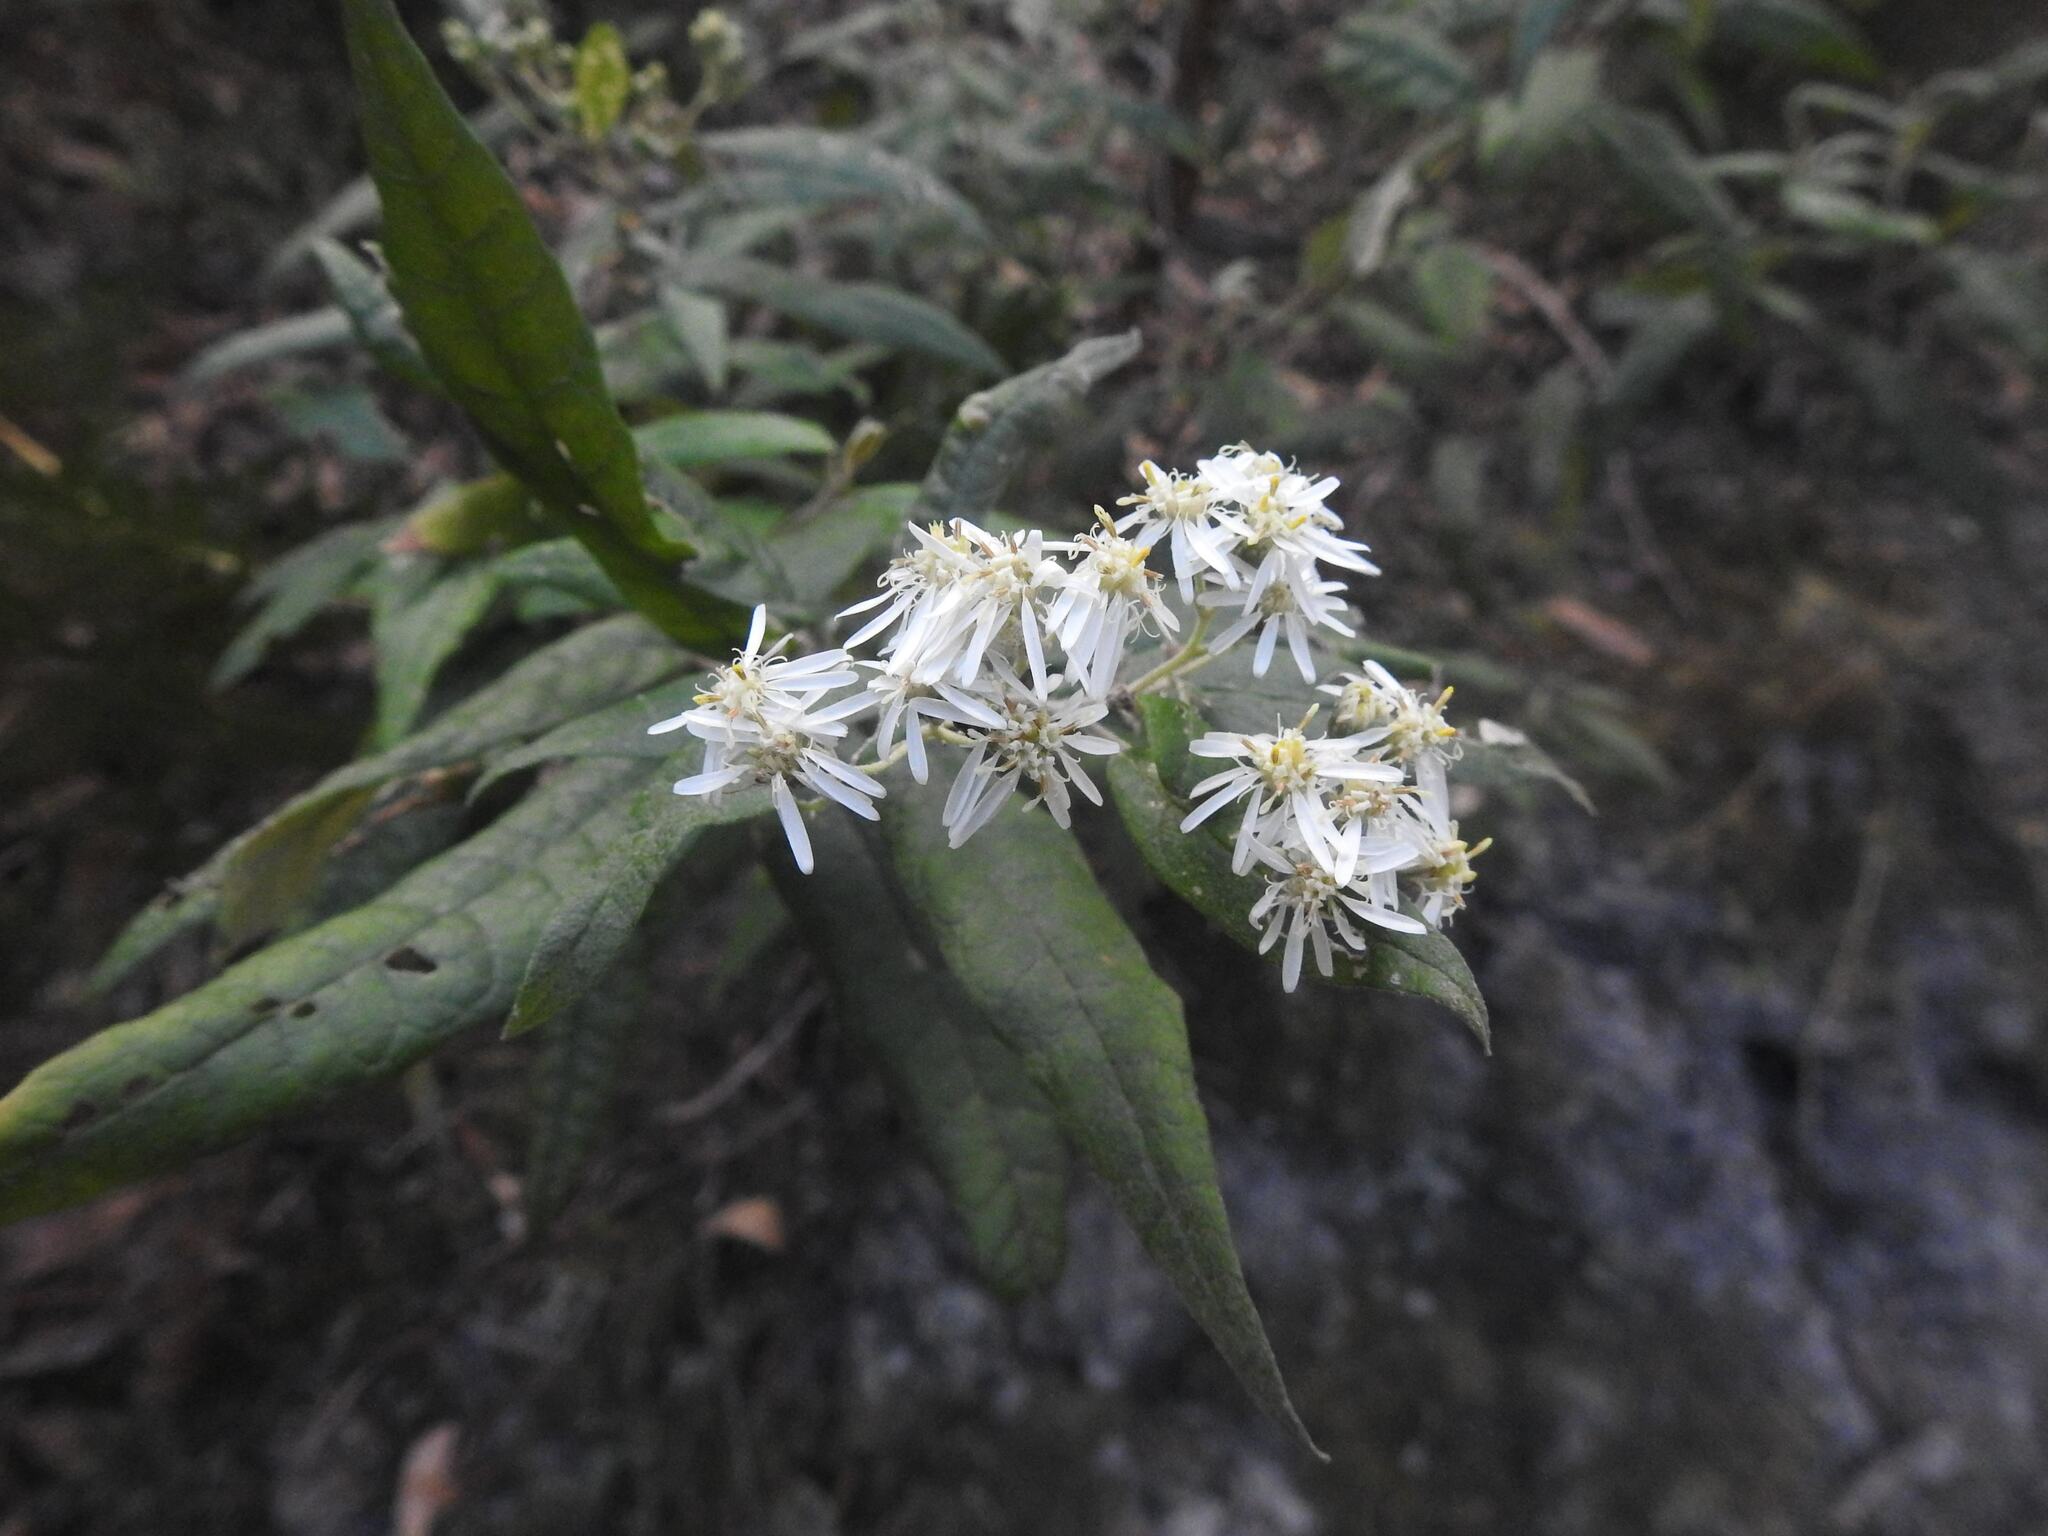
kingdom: Plantae
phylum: Tracheophyta
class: Magnoliopsida
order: Asterales
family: Asteraceae
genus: Olearia
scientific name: Olearia lirata
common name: Dusty daisybush
